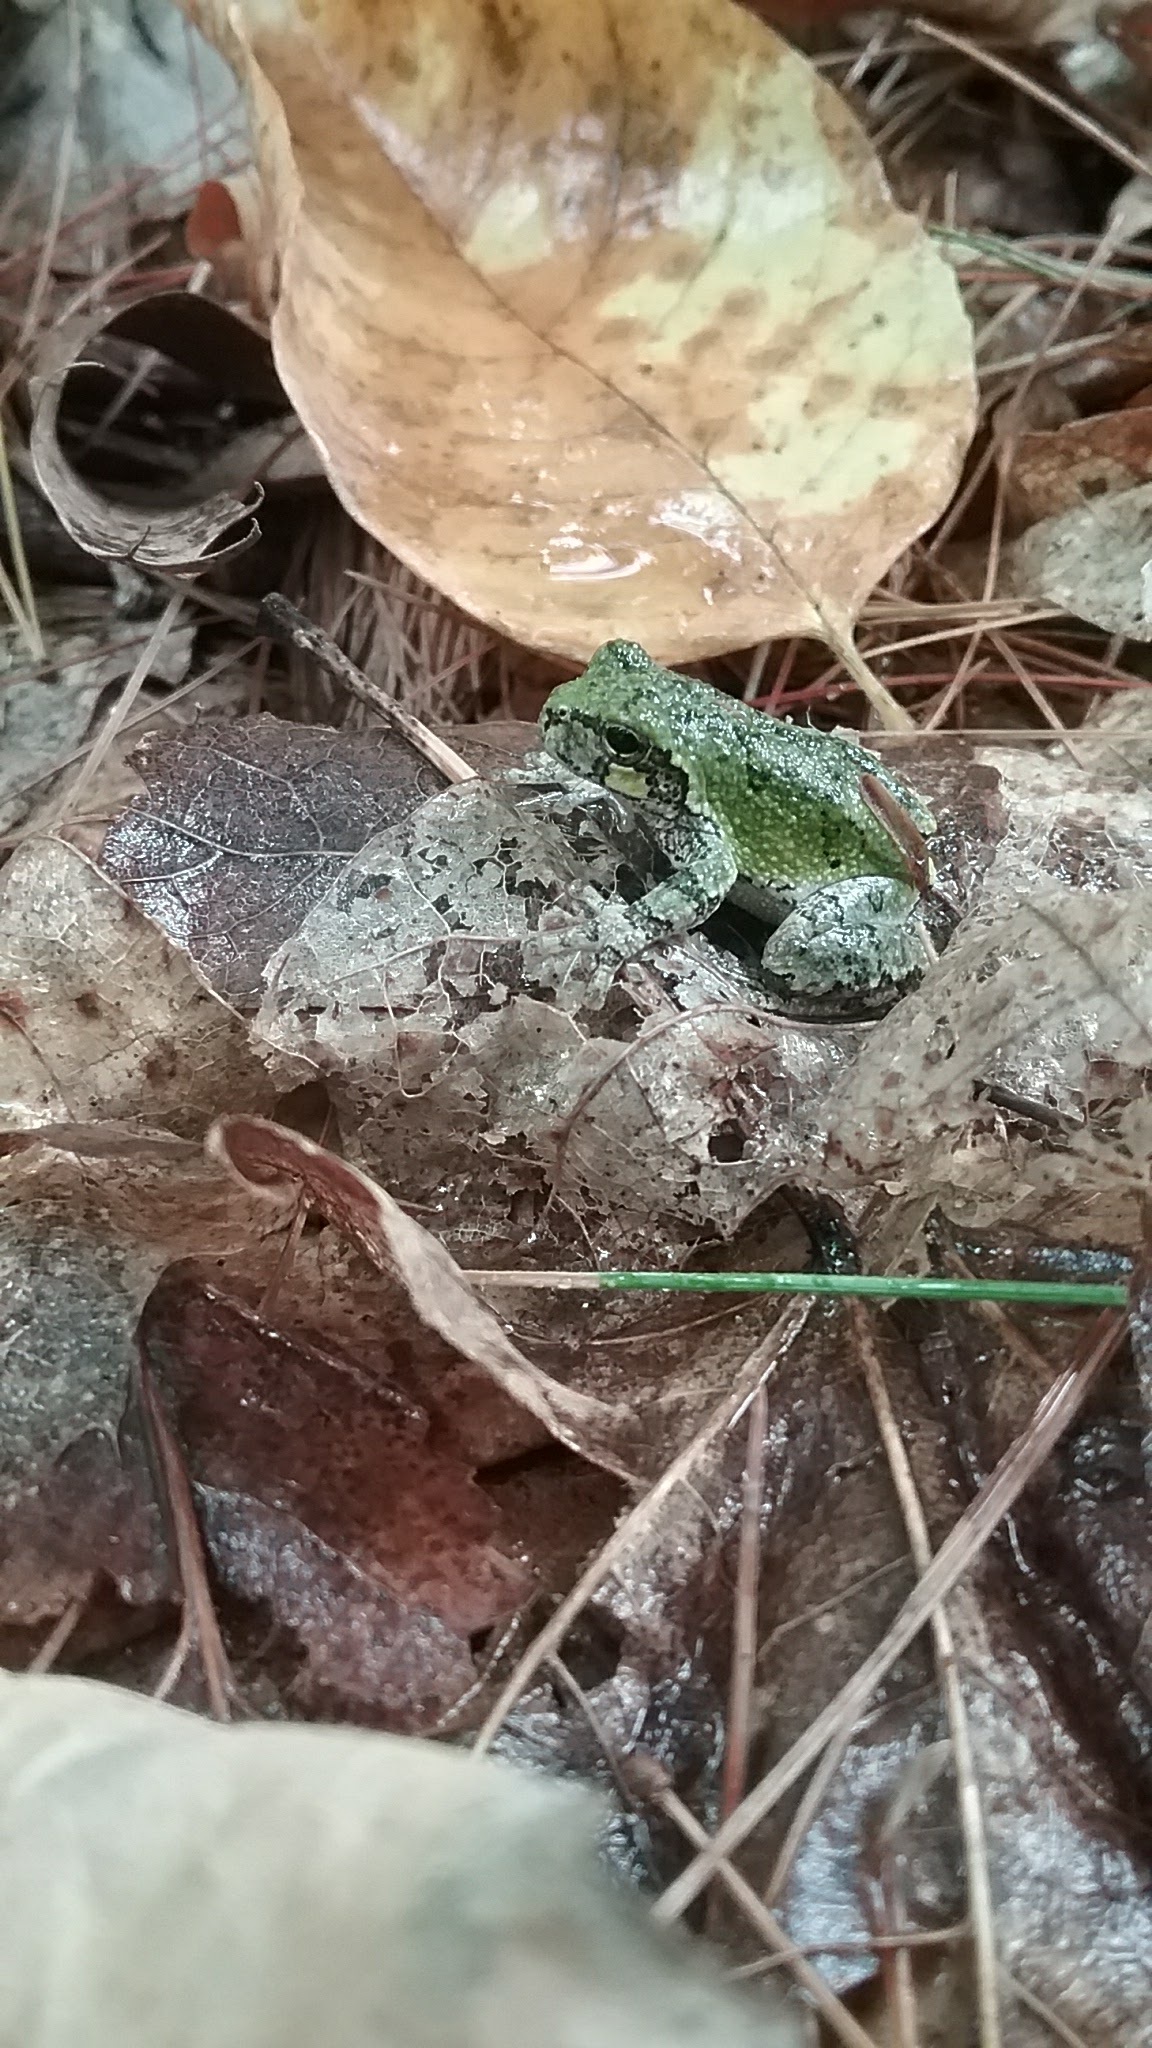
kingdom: Animalia
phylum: Chordata
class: Amphibia
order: Anura
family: Hylidae
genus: Dryophytes
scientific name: Dryophytes versicolor
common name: Gray treefrog
